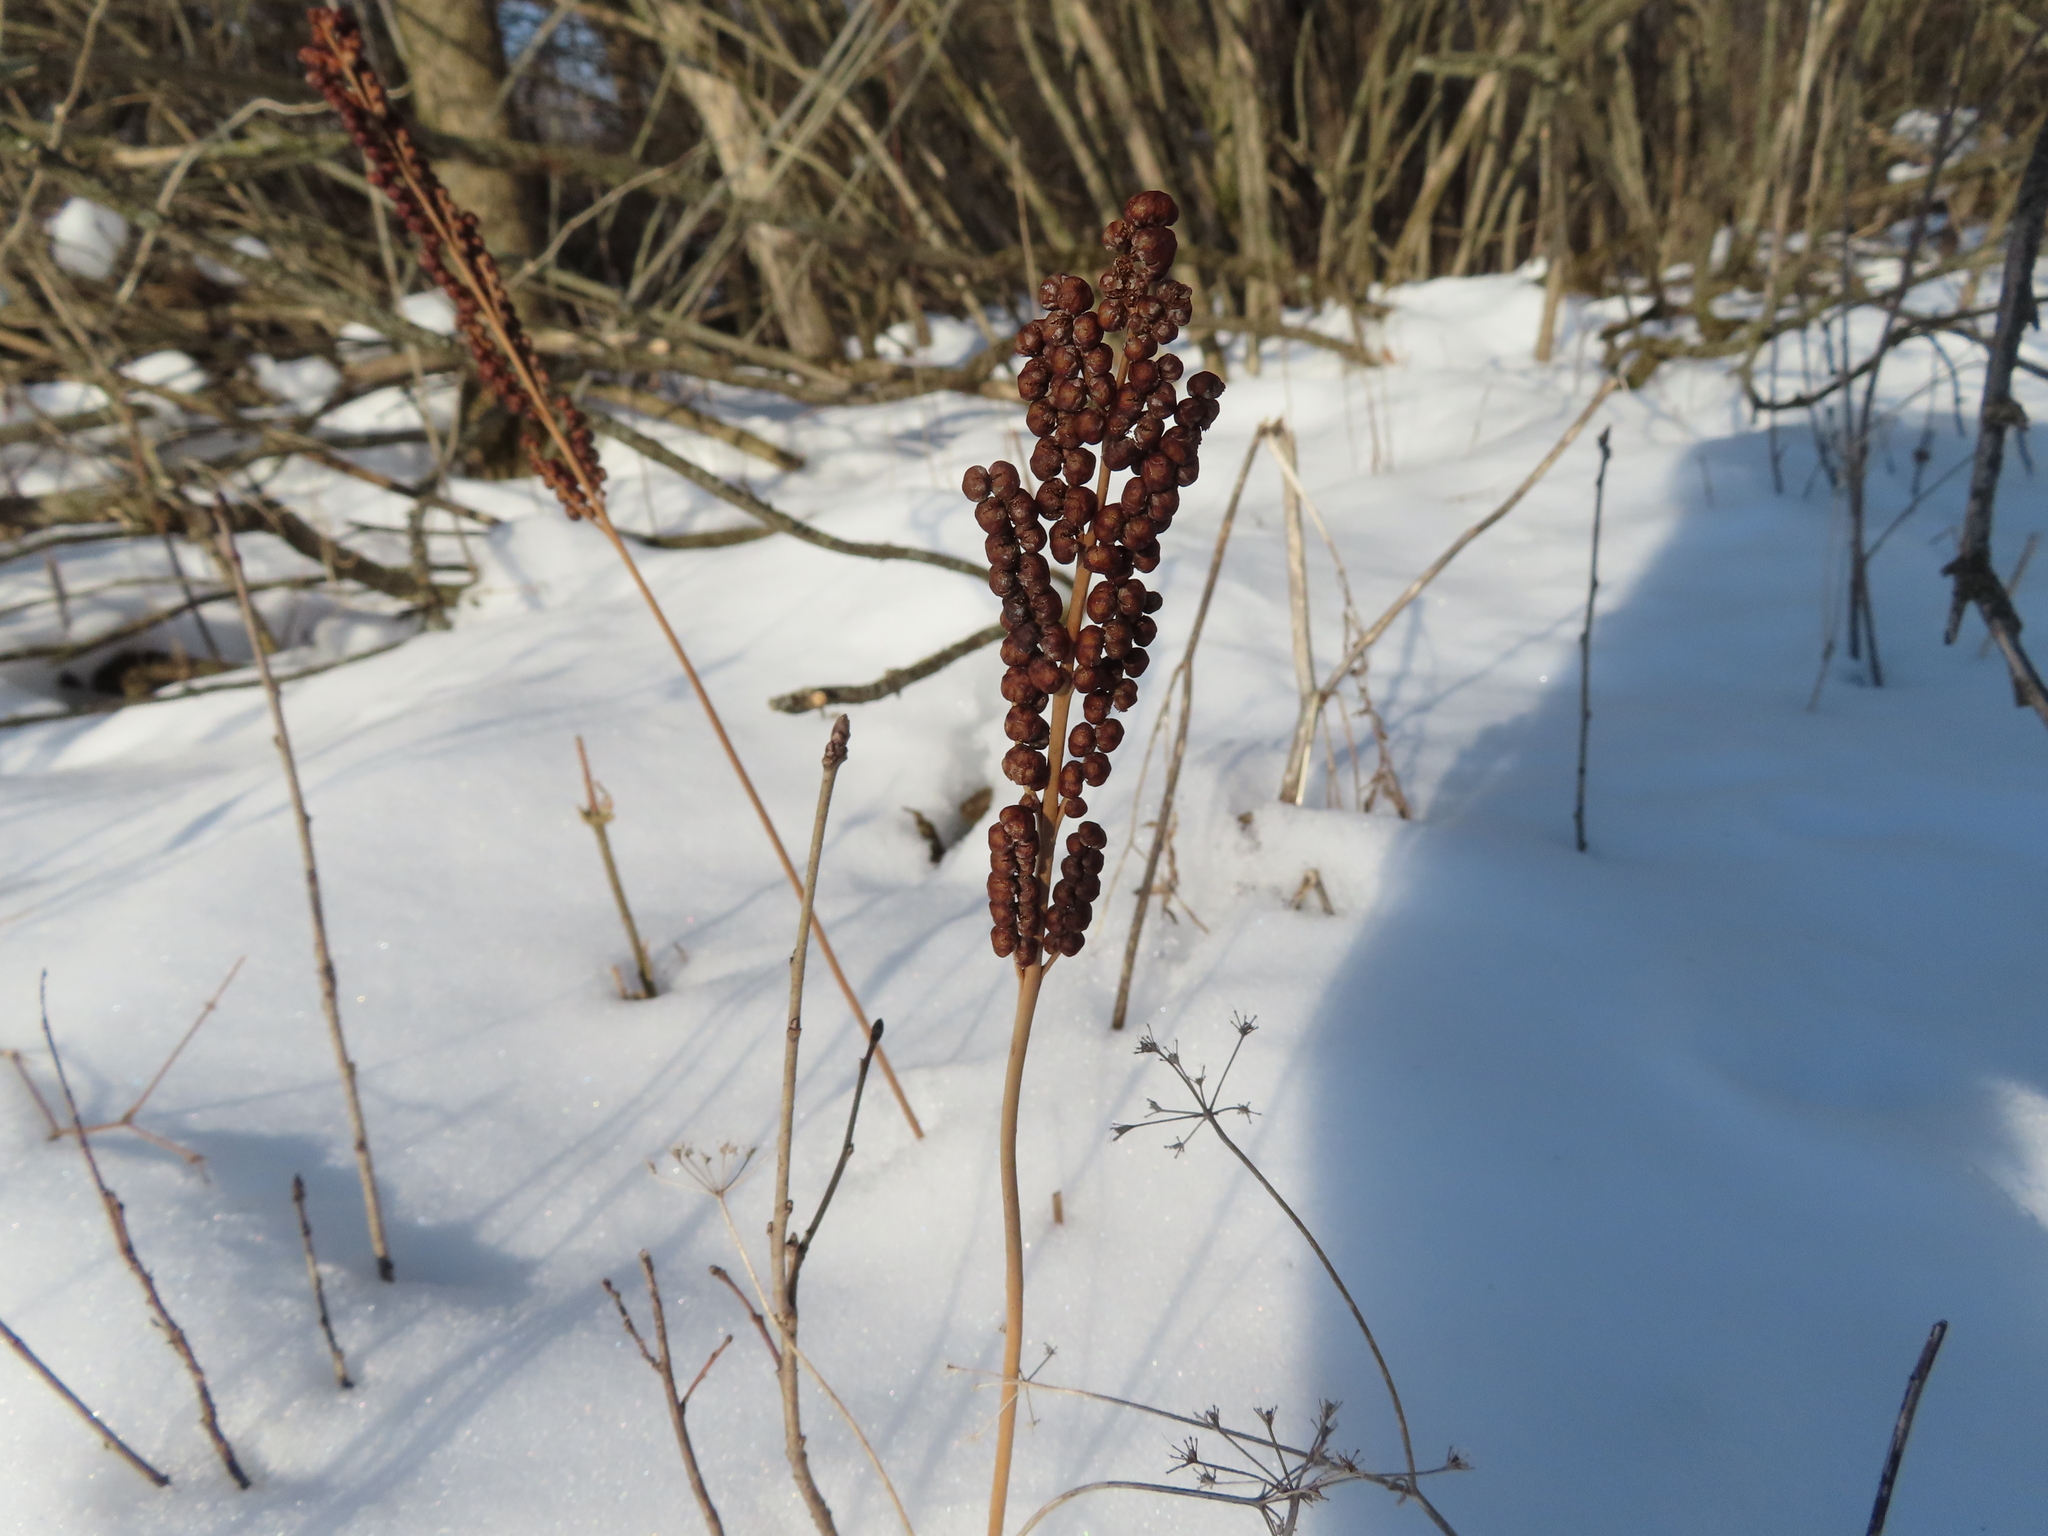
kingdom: Plantae
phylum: Tracheophyta
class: Polypodiopsida
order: Polypodiales
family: Onocleaceae
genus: Onoclea
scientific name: Onoclea sensibilis
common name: Sensitive fern
